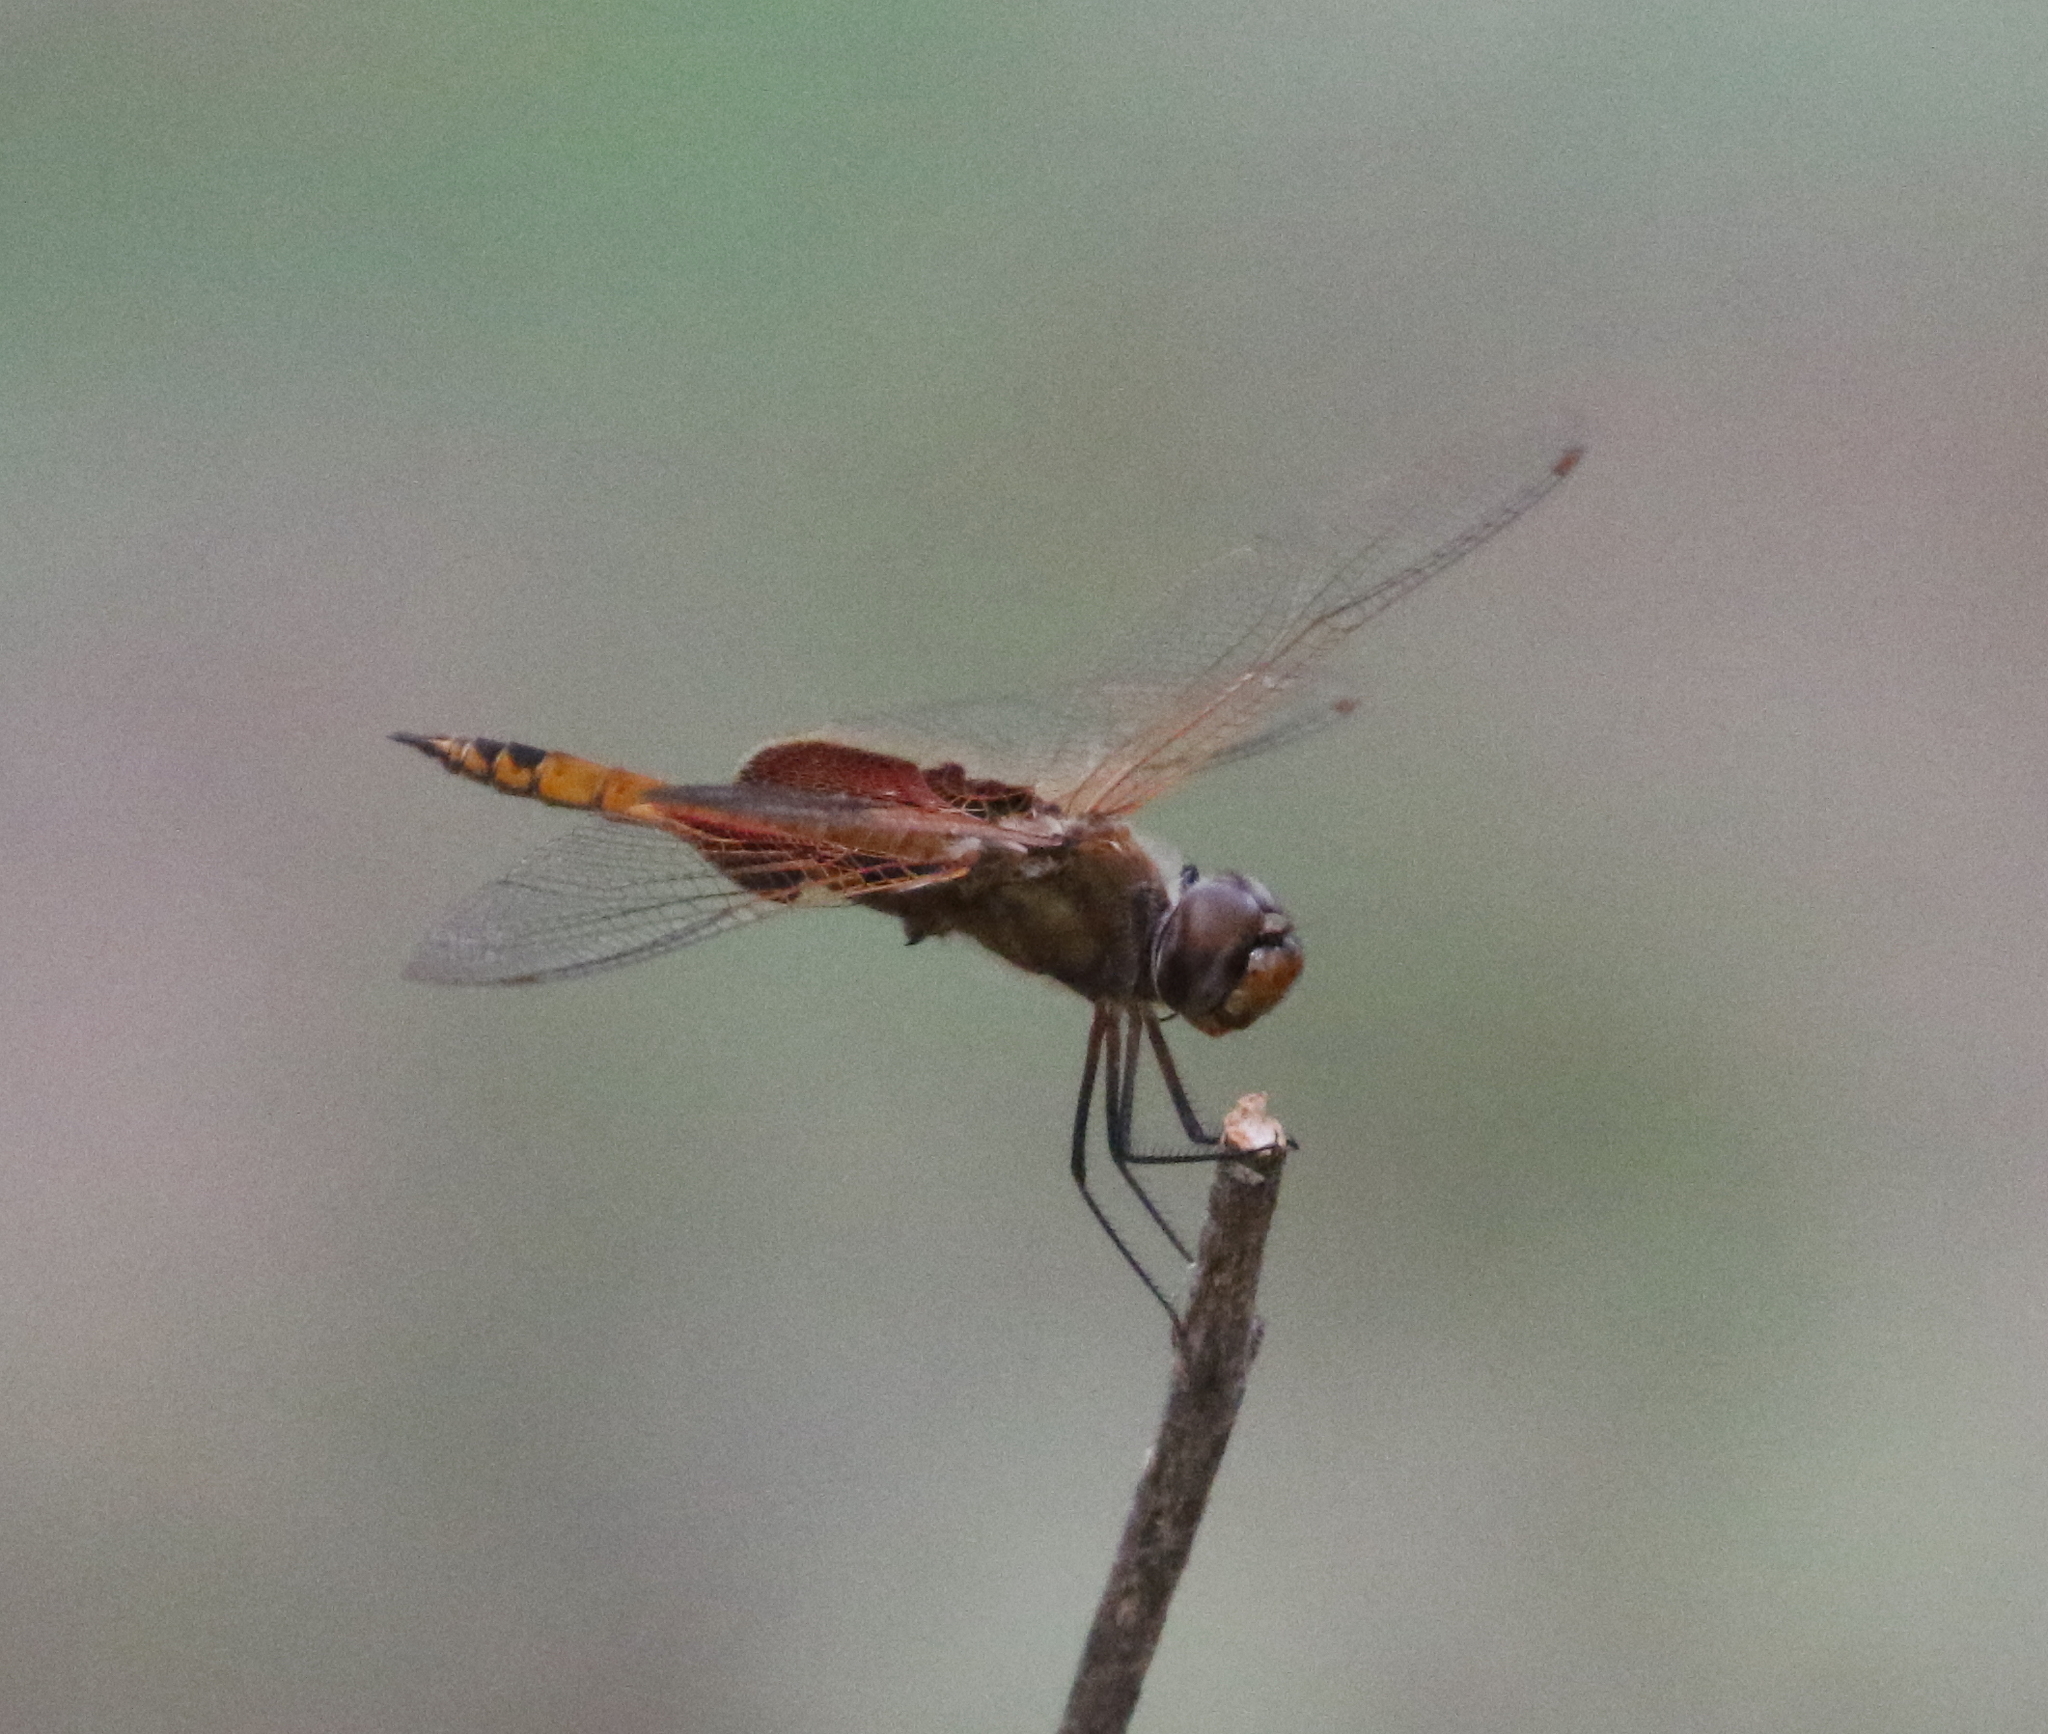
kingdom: Animalia
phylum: Arthropoda
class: Insecta
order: Odonata
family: Libellulidae
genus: Tramea
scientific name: Tramea onusta
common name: Red saddlebags
